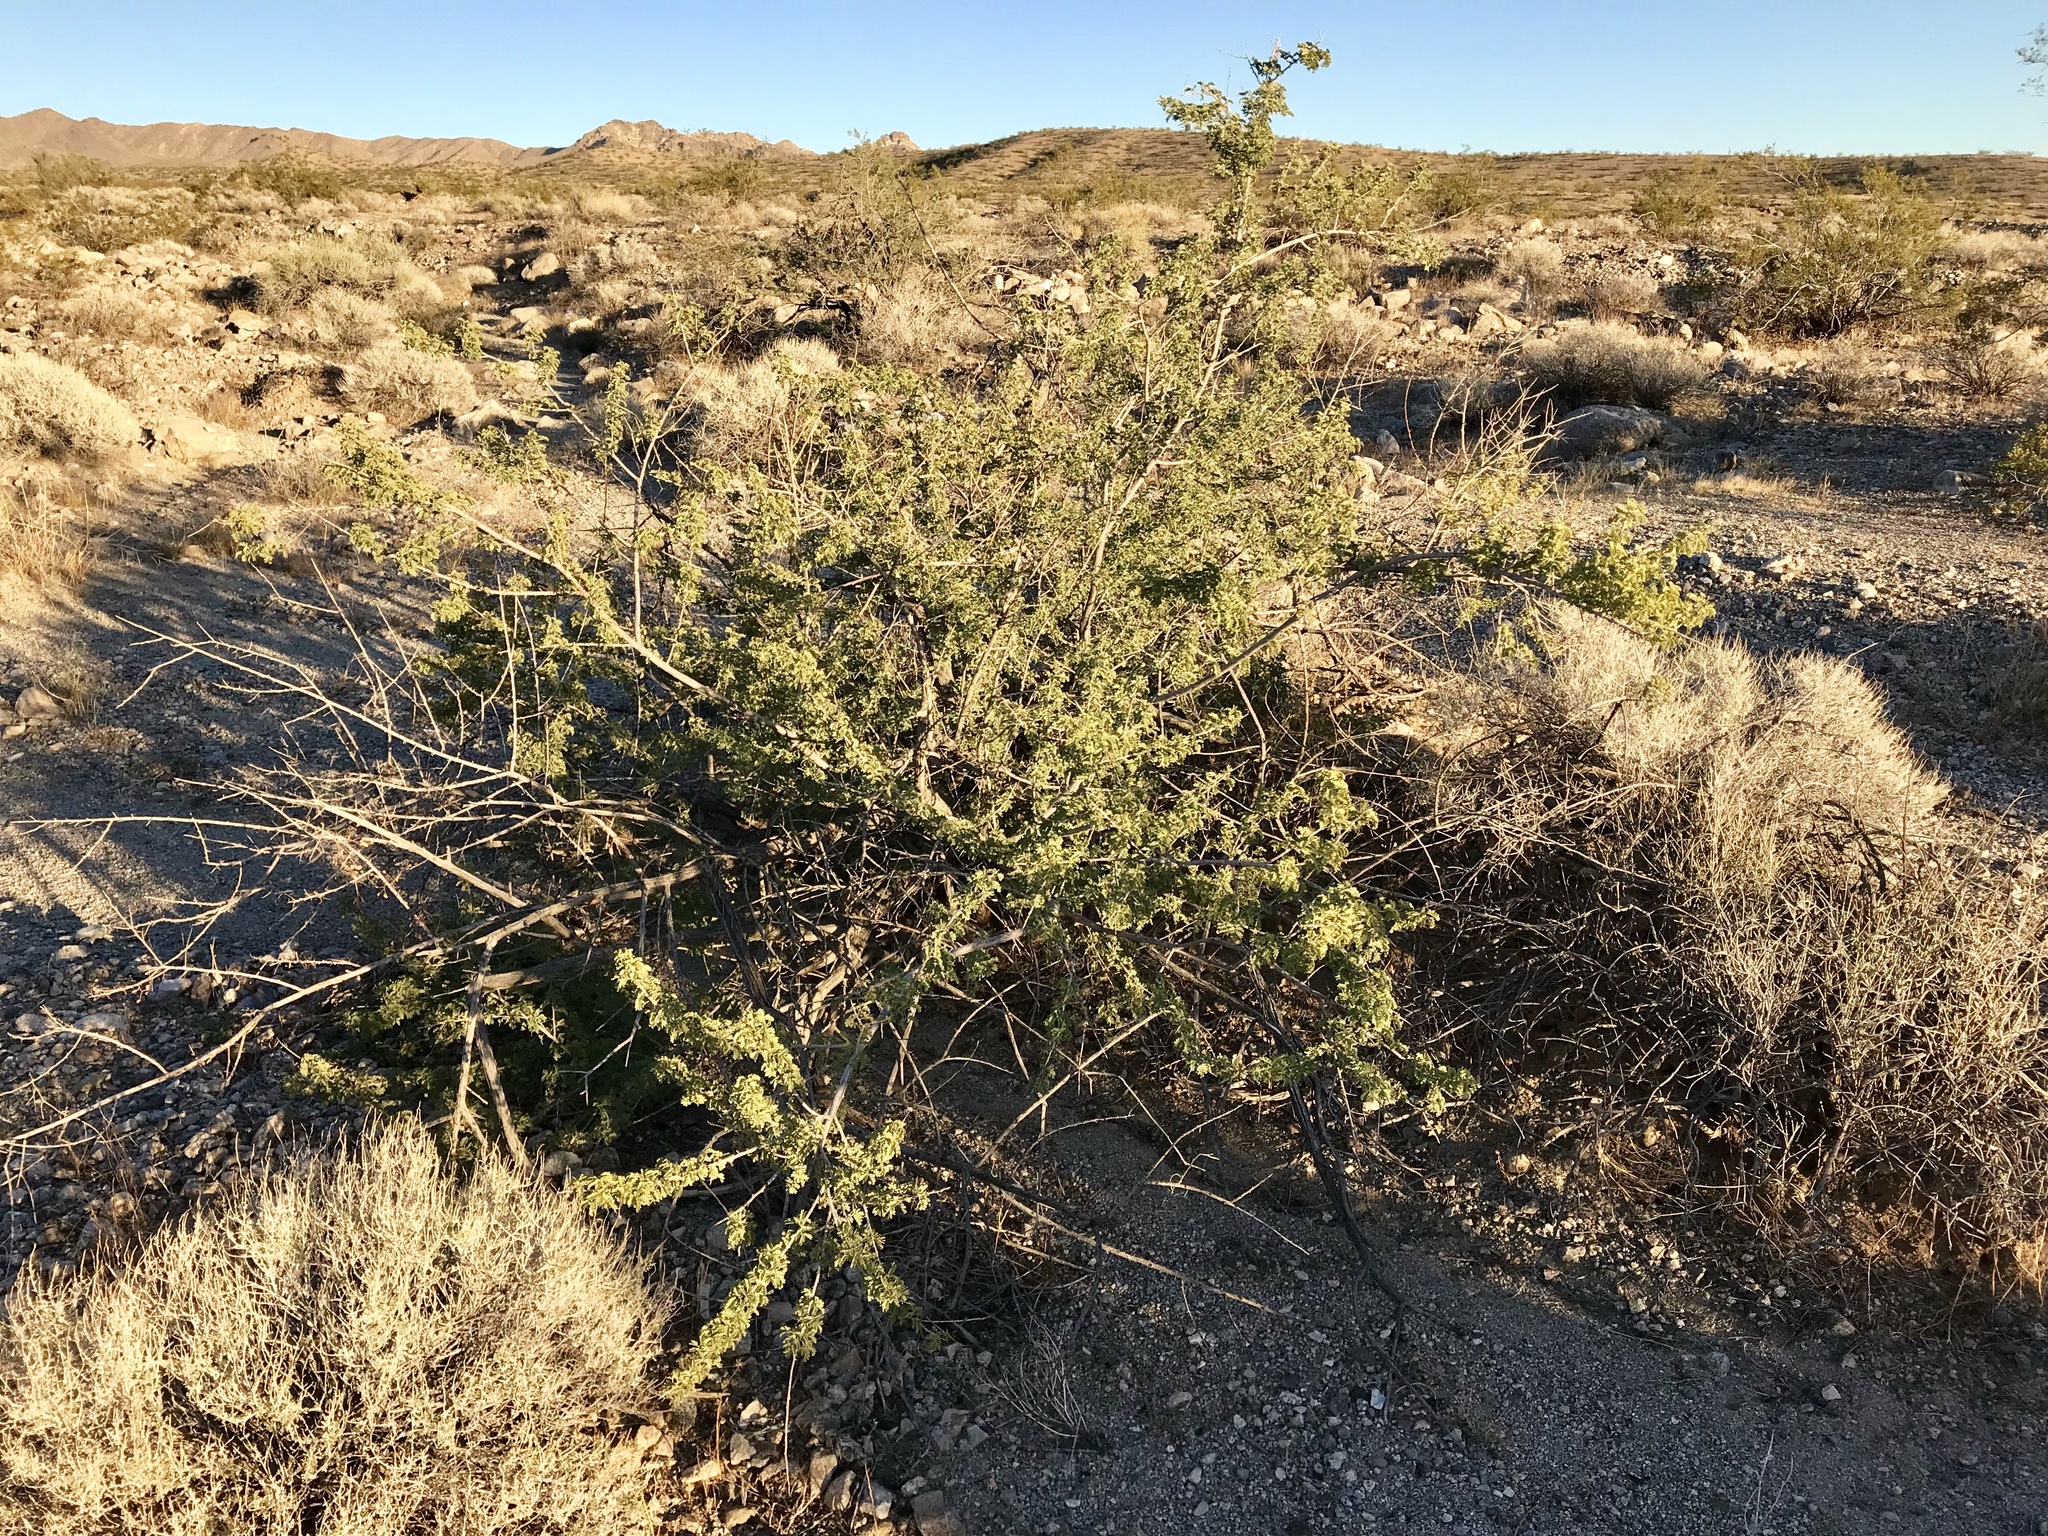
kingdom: Plantae
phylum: Tracheophyta
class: Magnoliopsida
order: Fabales
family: Fabaceae
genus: Senegalia
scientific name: Senegalia greggii
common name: Texas-mimosa
